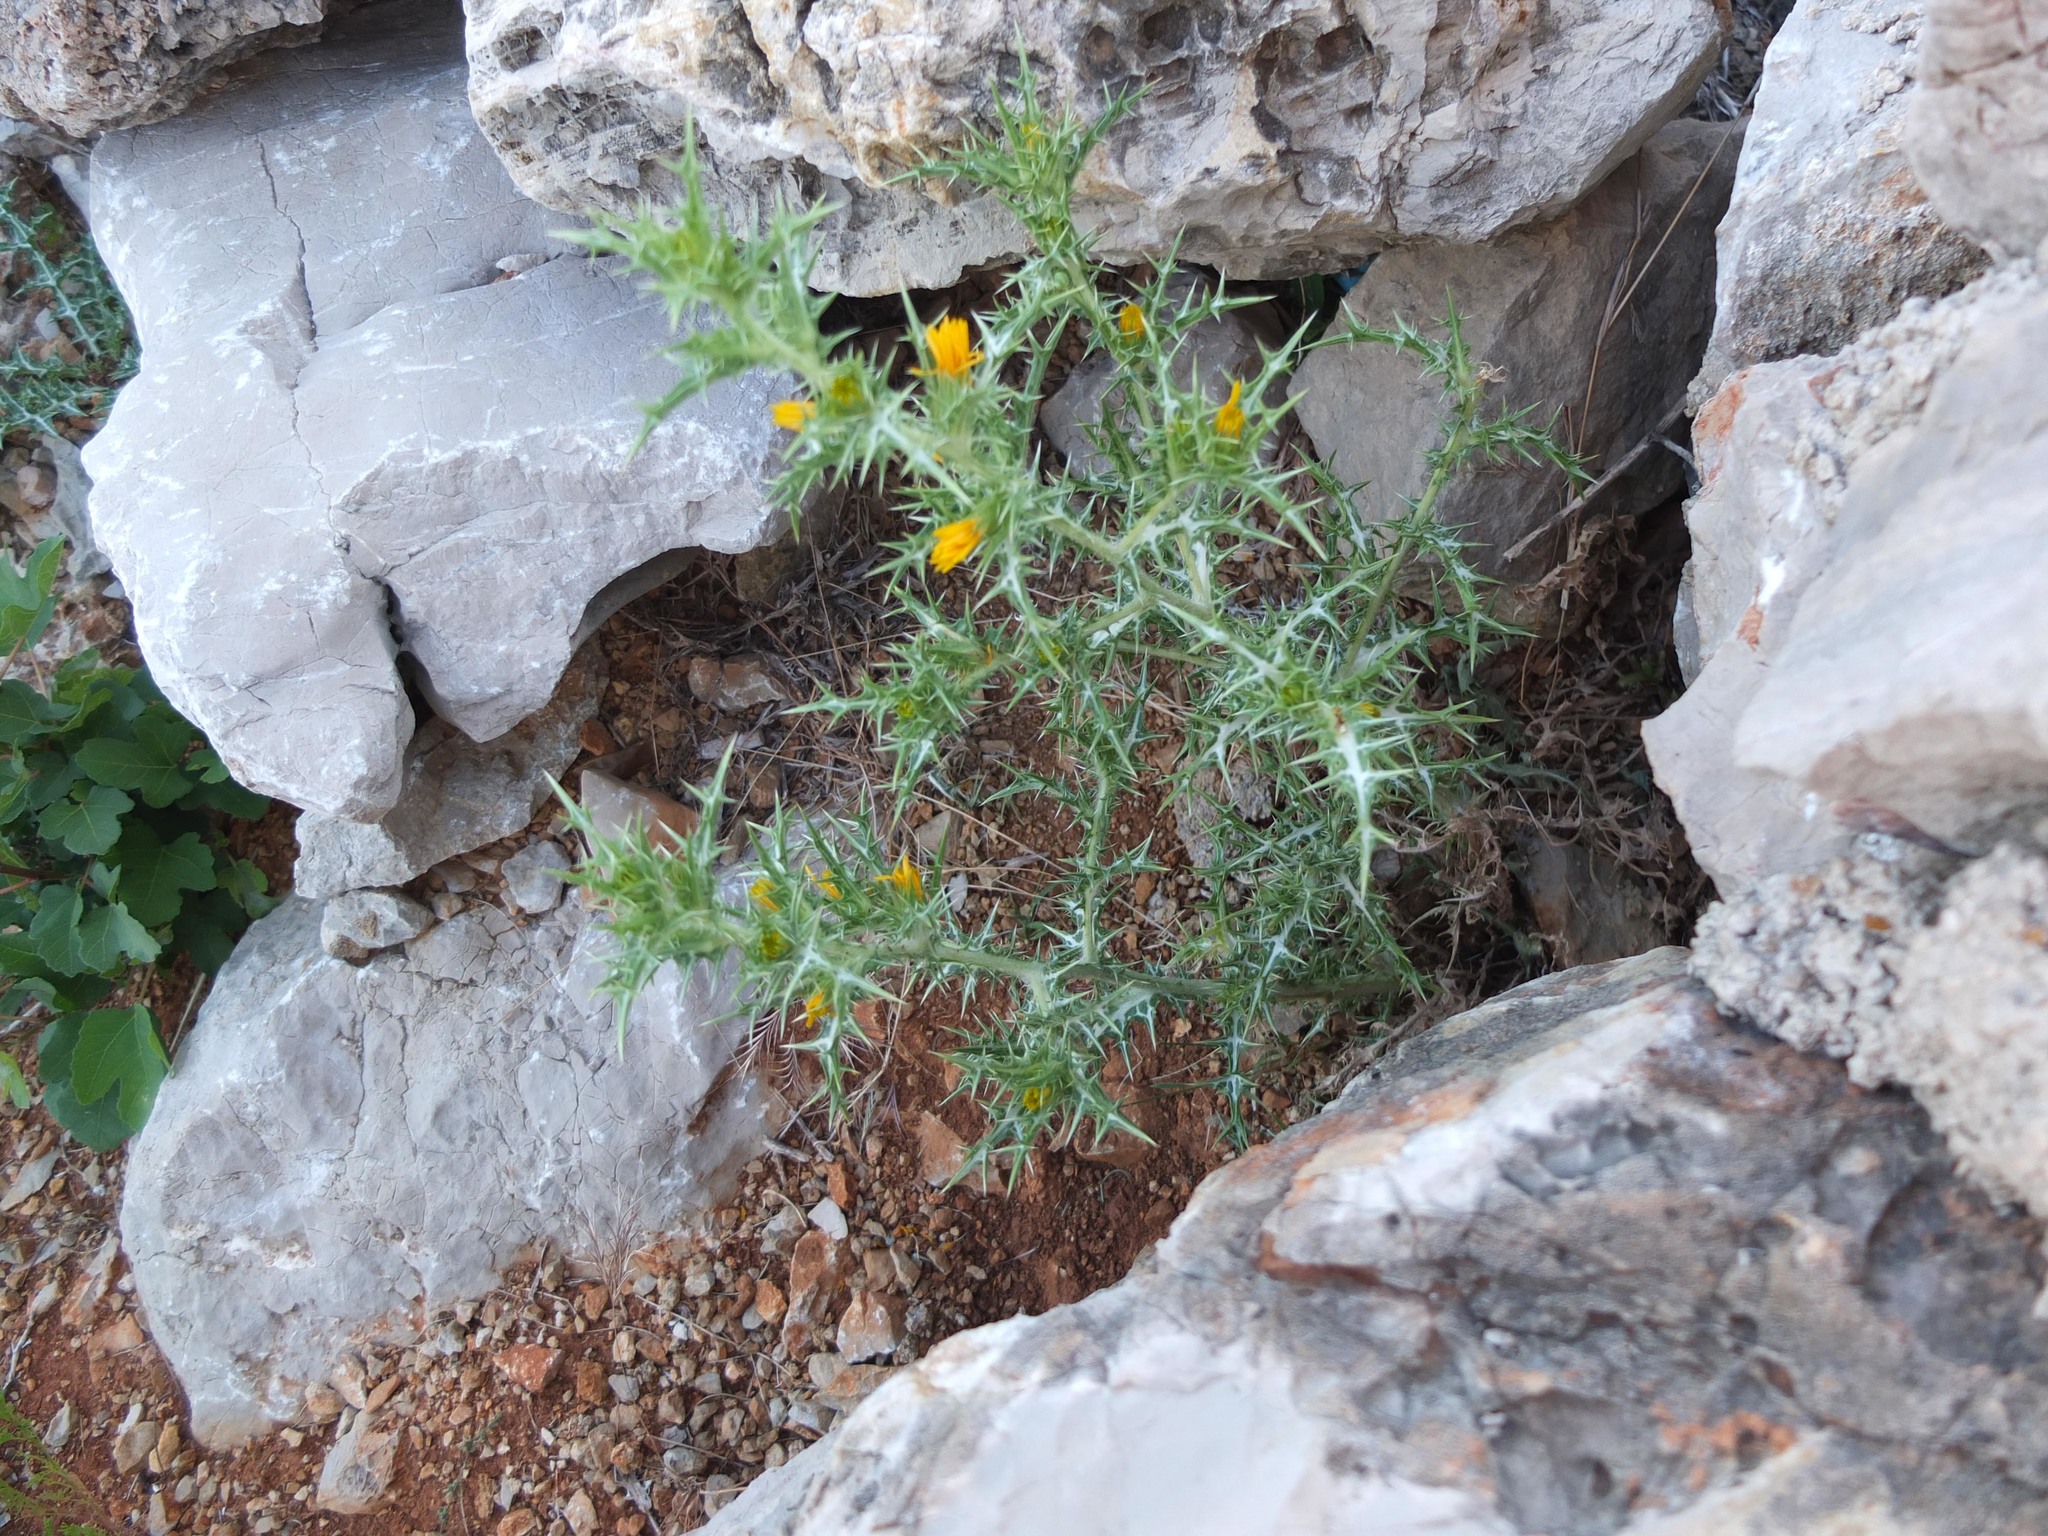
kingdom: Plantae
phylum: Tracheophyta
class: Magnoliopsida
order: Asterales
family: Asteraceae
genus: Scolymus
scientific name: Scolymus hispanicus
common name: Golden thistle
